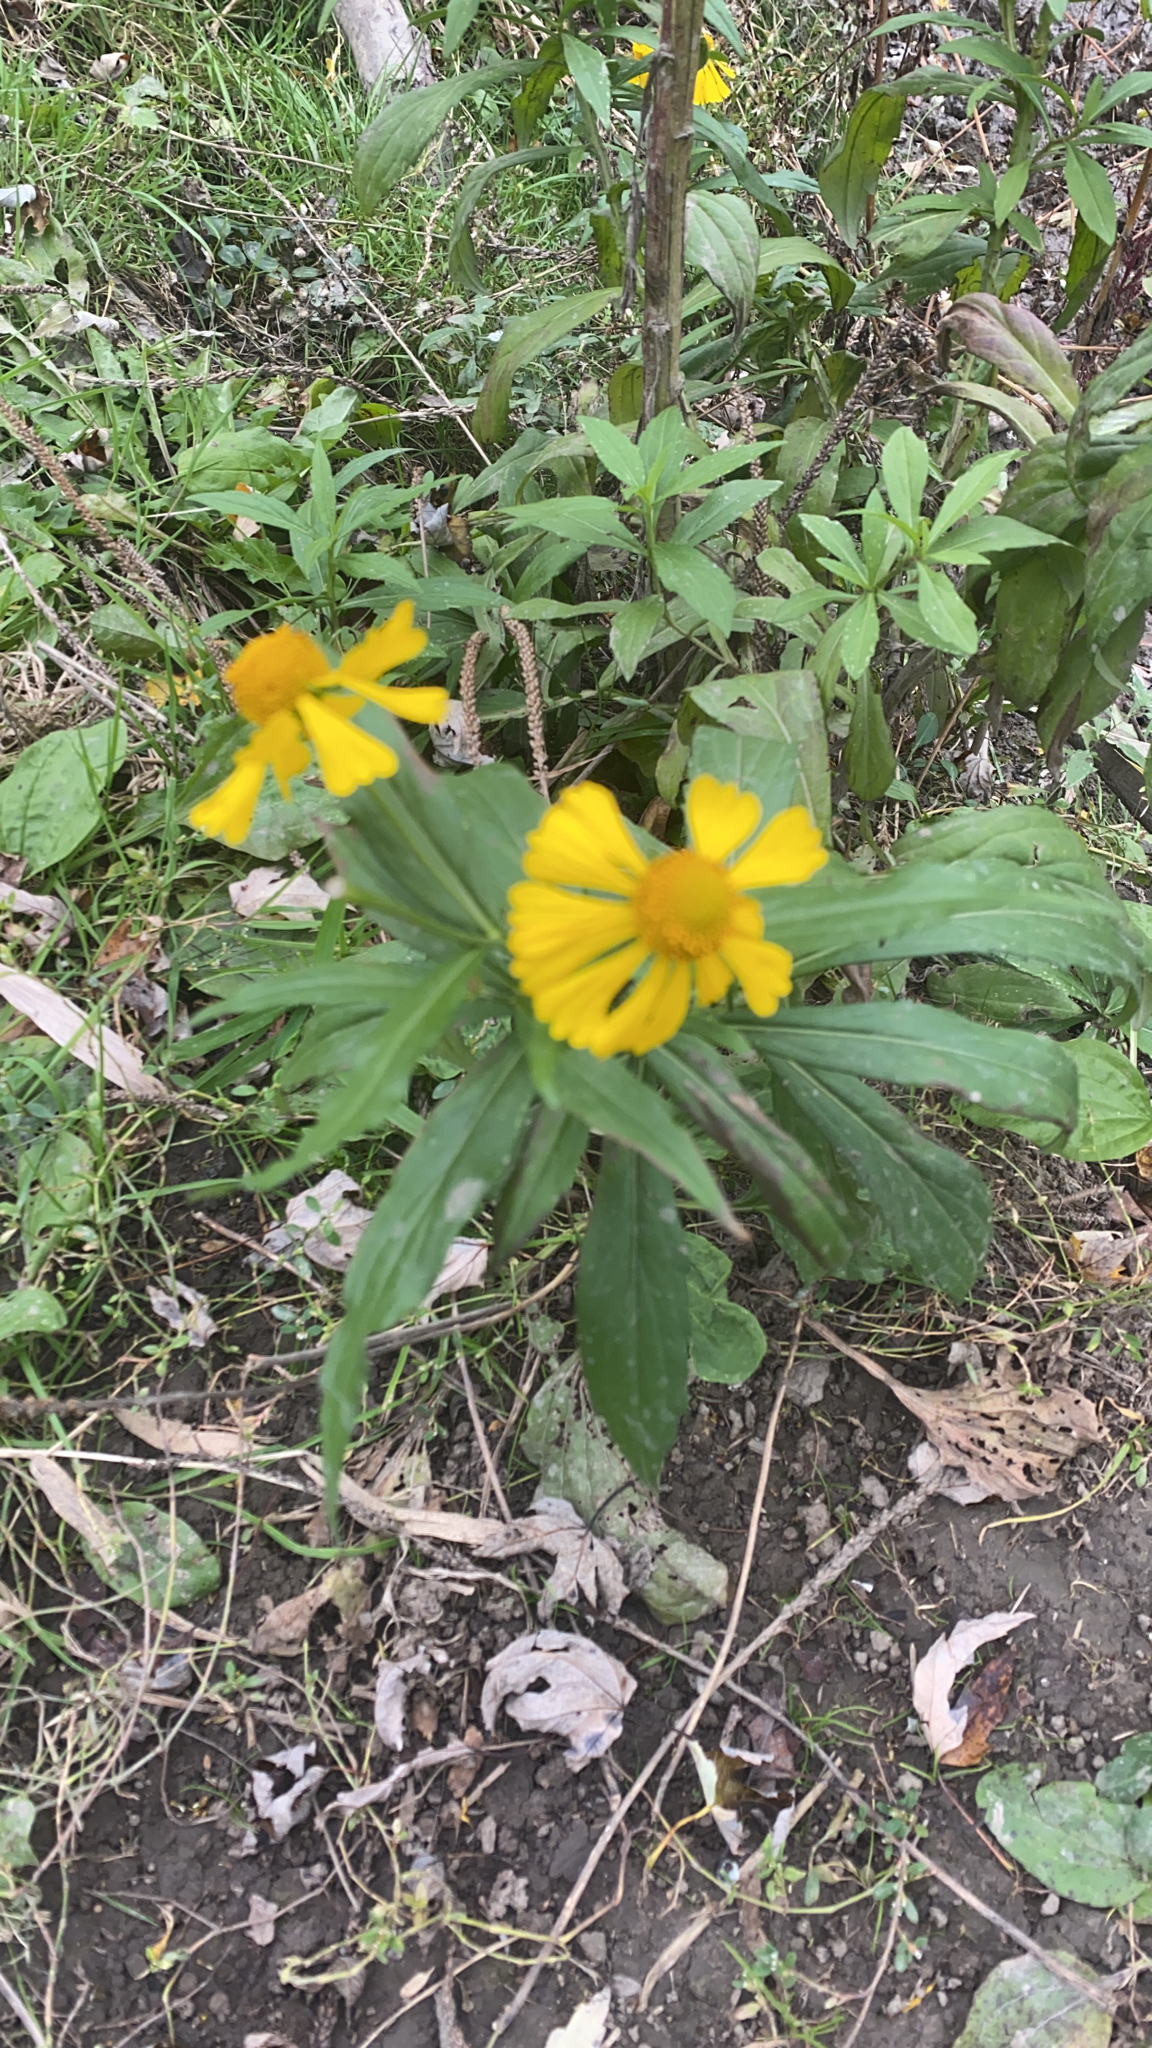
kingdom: Plantae
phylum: Tracheophyta
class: Magnoliopsida
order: Asterales
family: Asteraceae
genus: Helenium
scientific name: Helenium autumnale
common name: Sneezeweed
